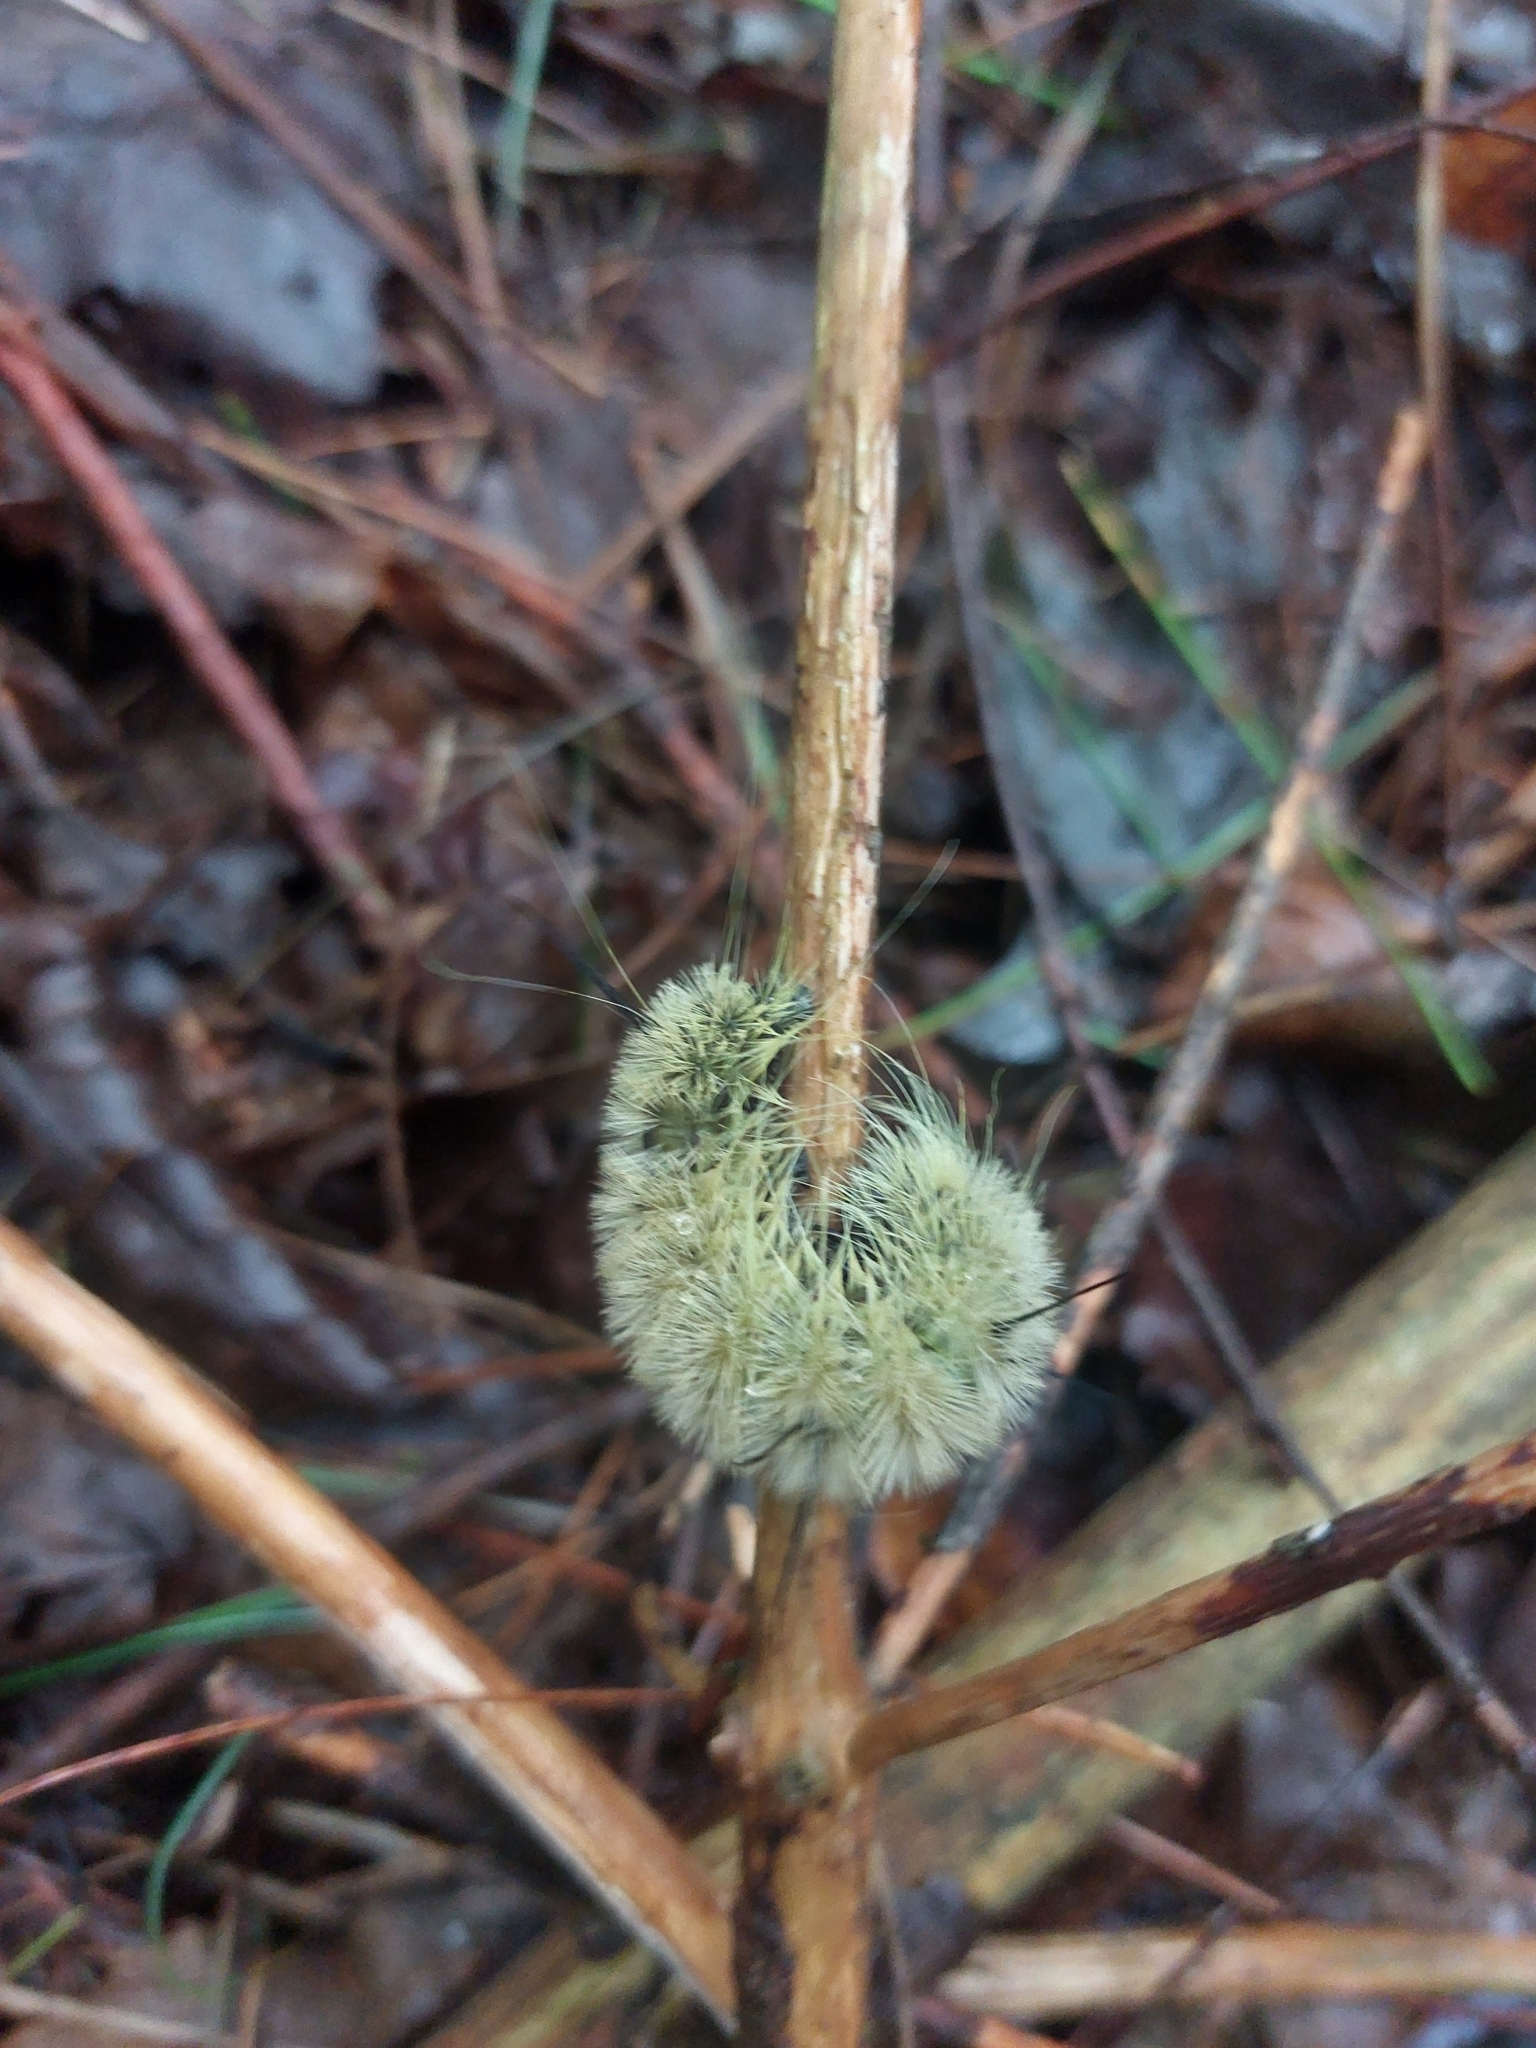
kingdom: Animalia
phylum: Arthropoda
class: Insecta
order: Lepidoptera
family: Noctuidae
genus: Acronicta
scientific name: Acronicta americana
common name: American dagger
